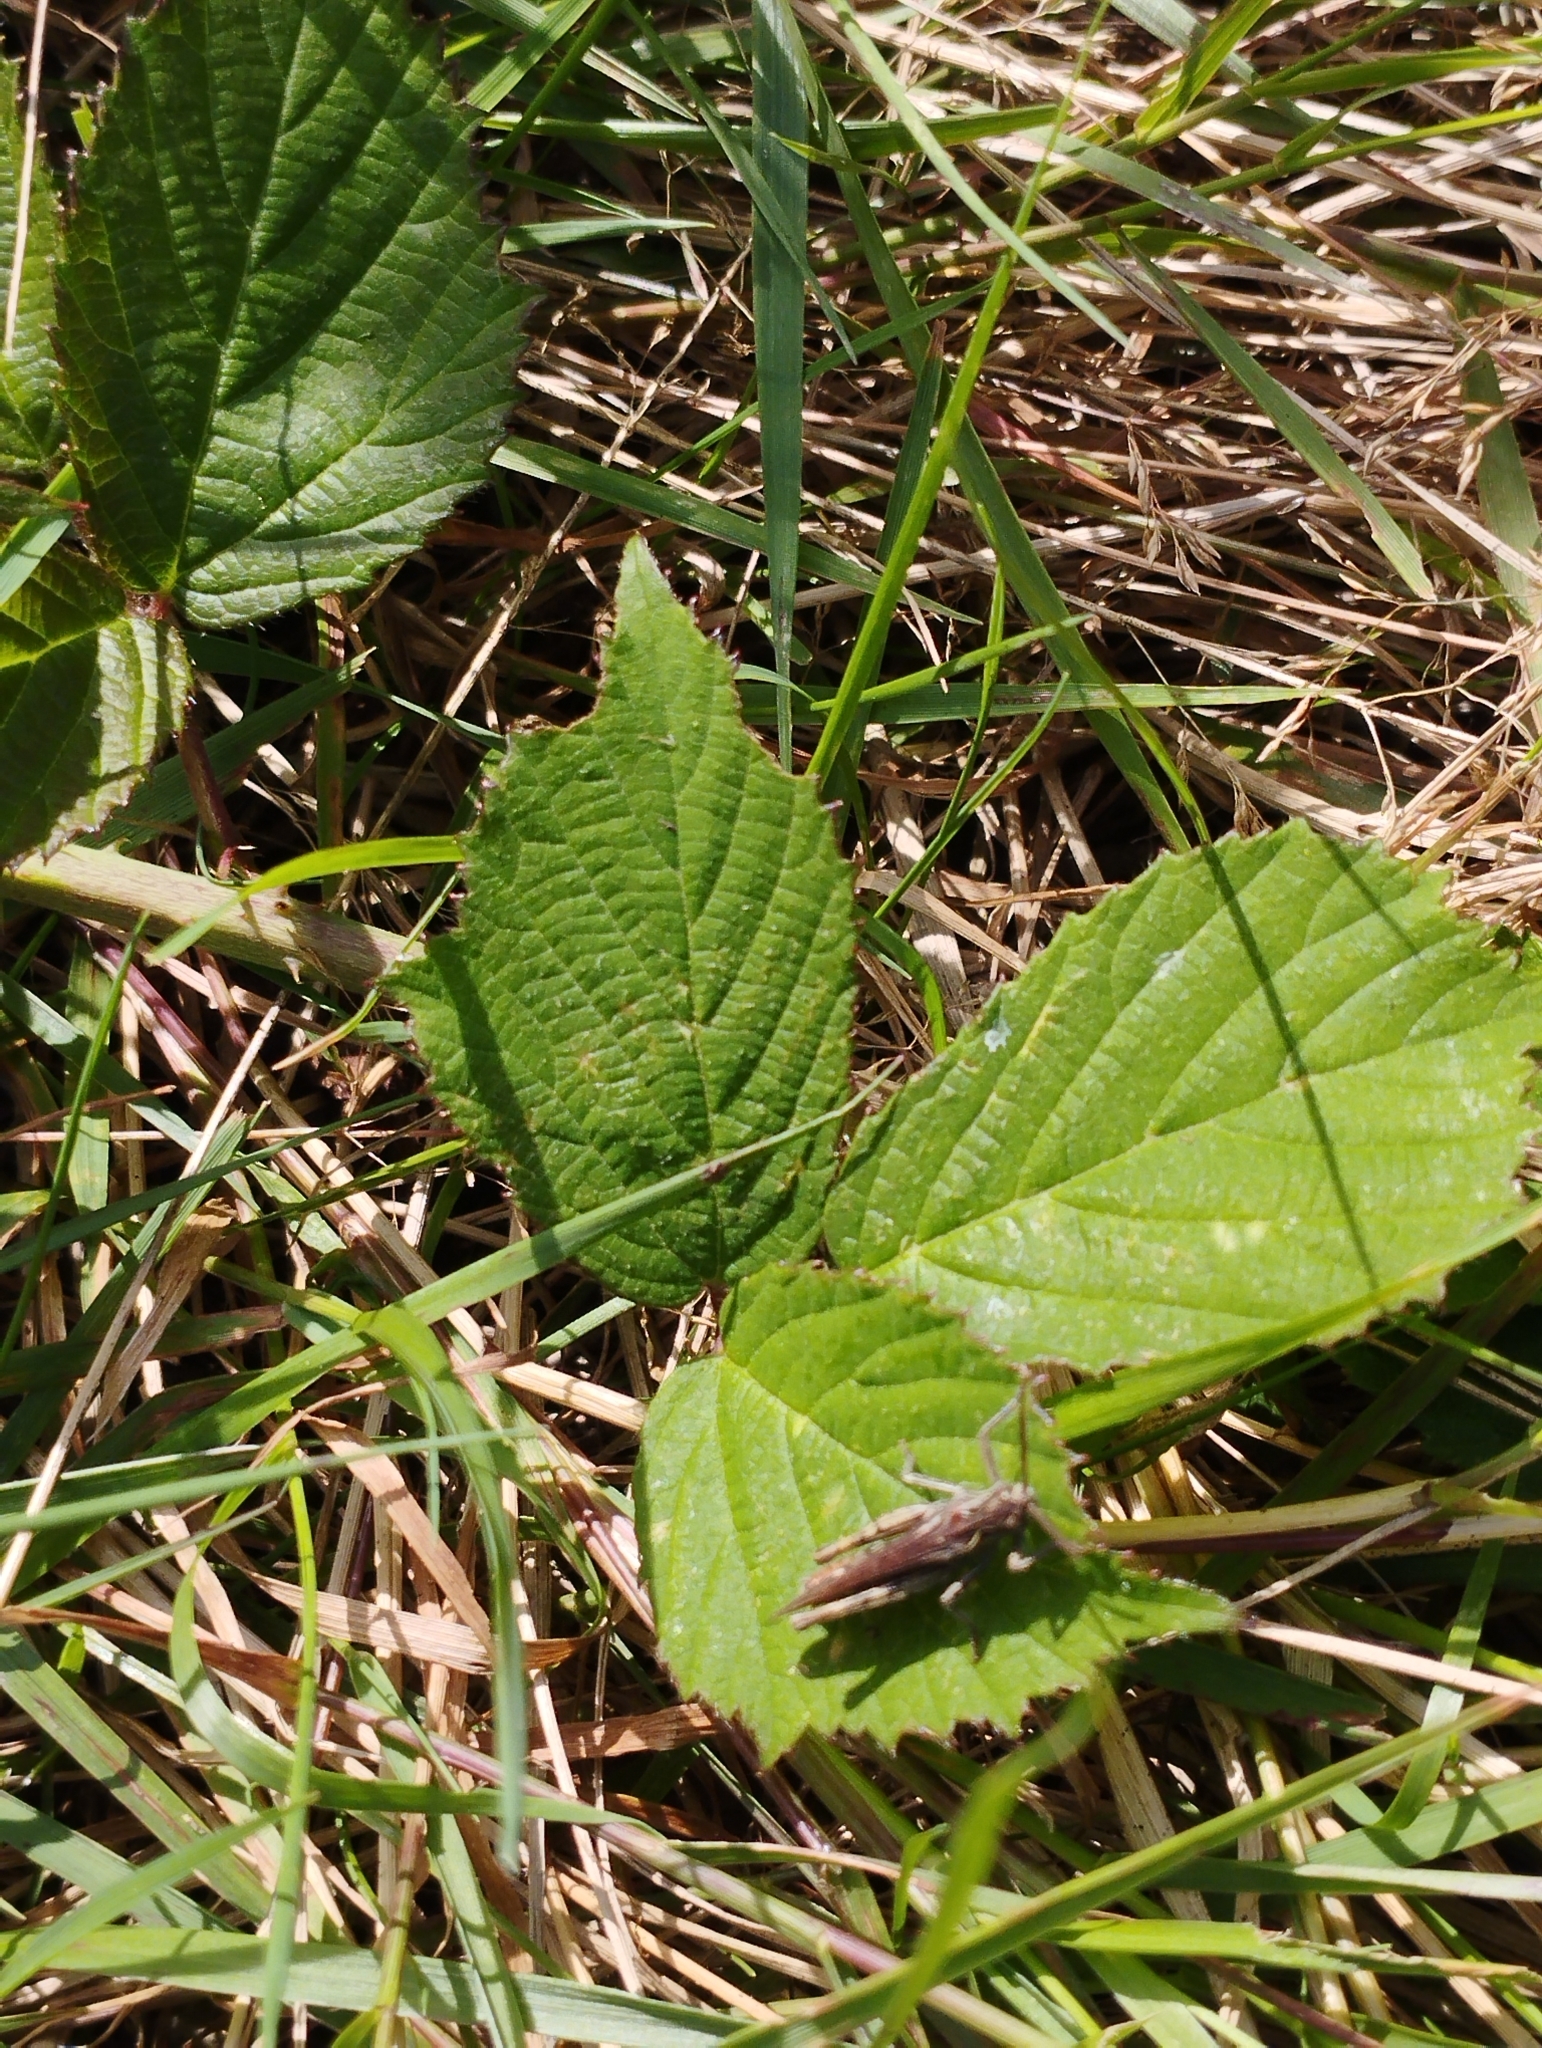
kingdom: Animalia
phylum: Arthropoda
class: Insecta
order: Orthoptera
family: Acrididae
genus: Chorthippus
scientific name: Chorthippus brunneus
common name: Field grasshopper
